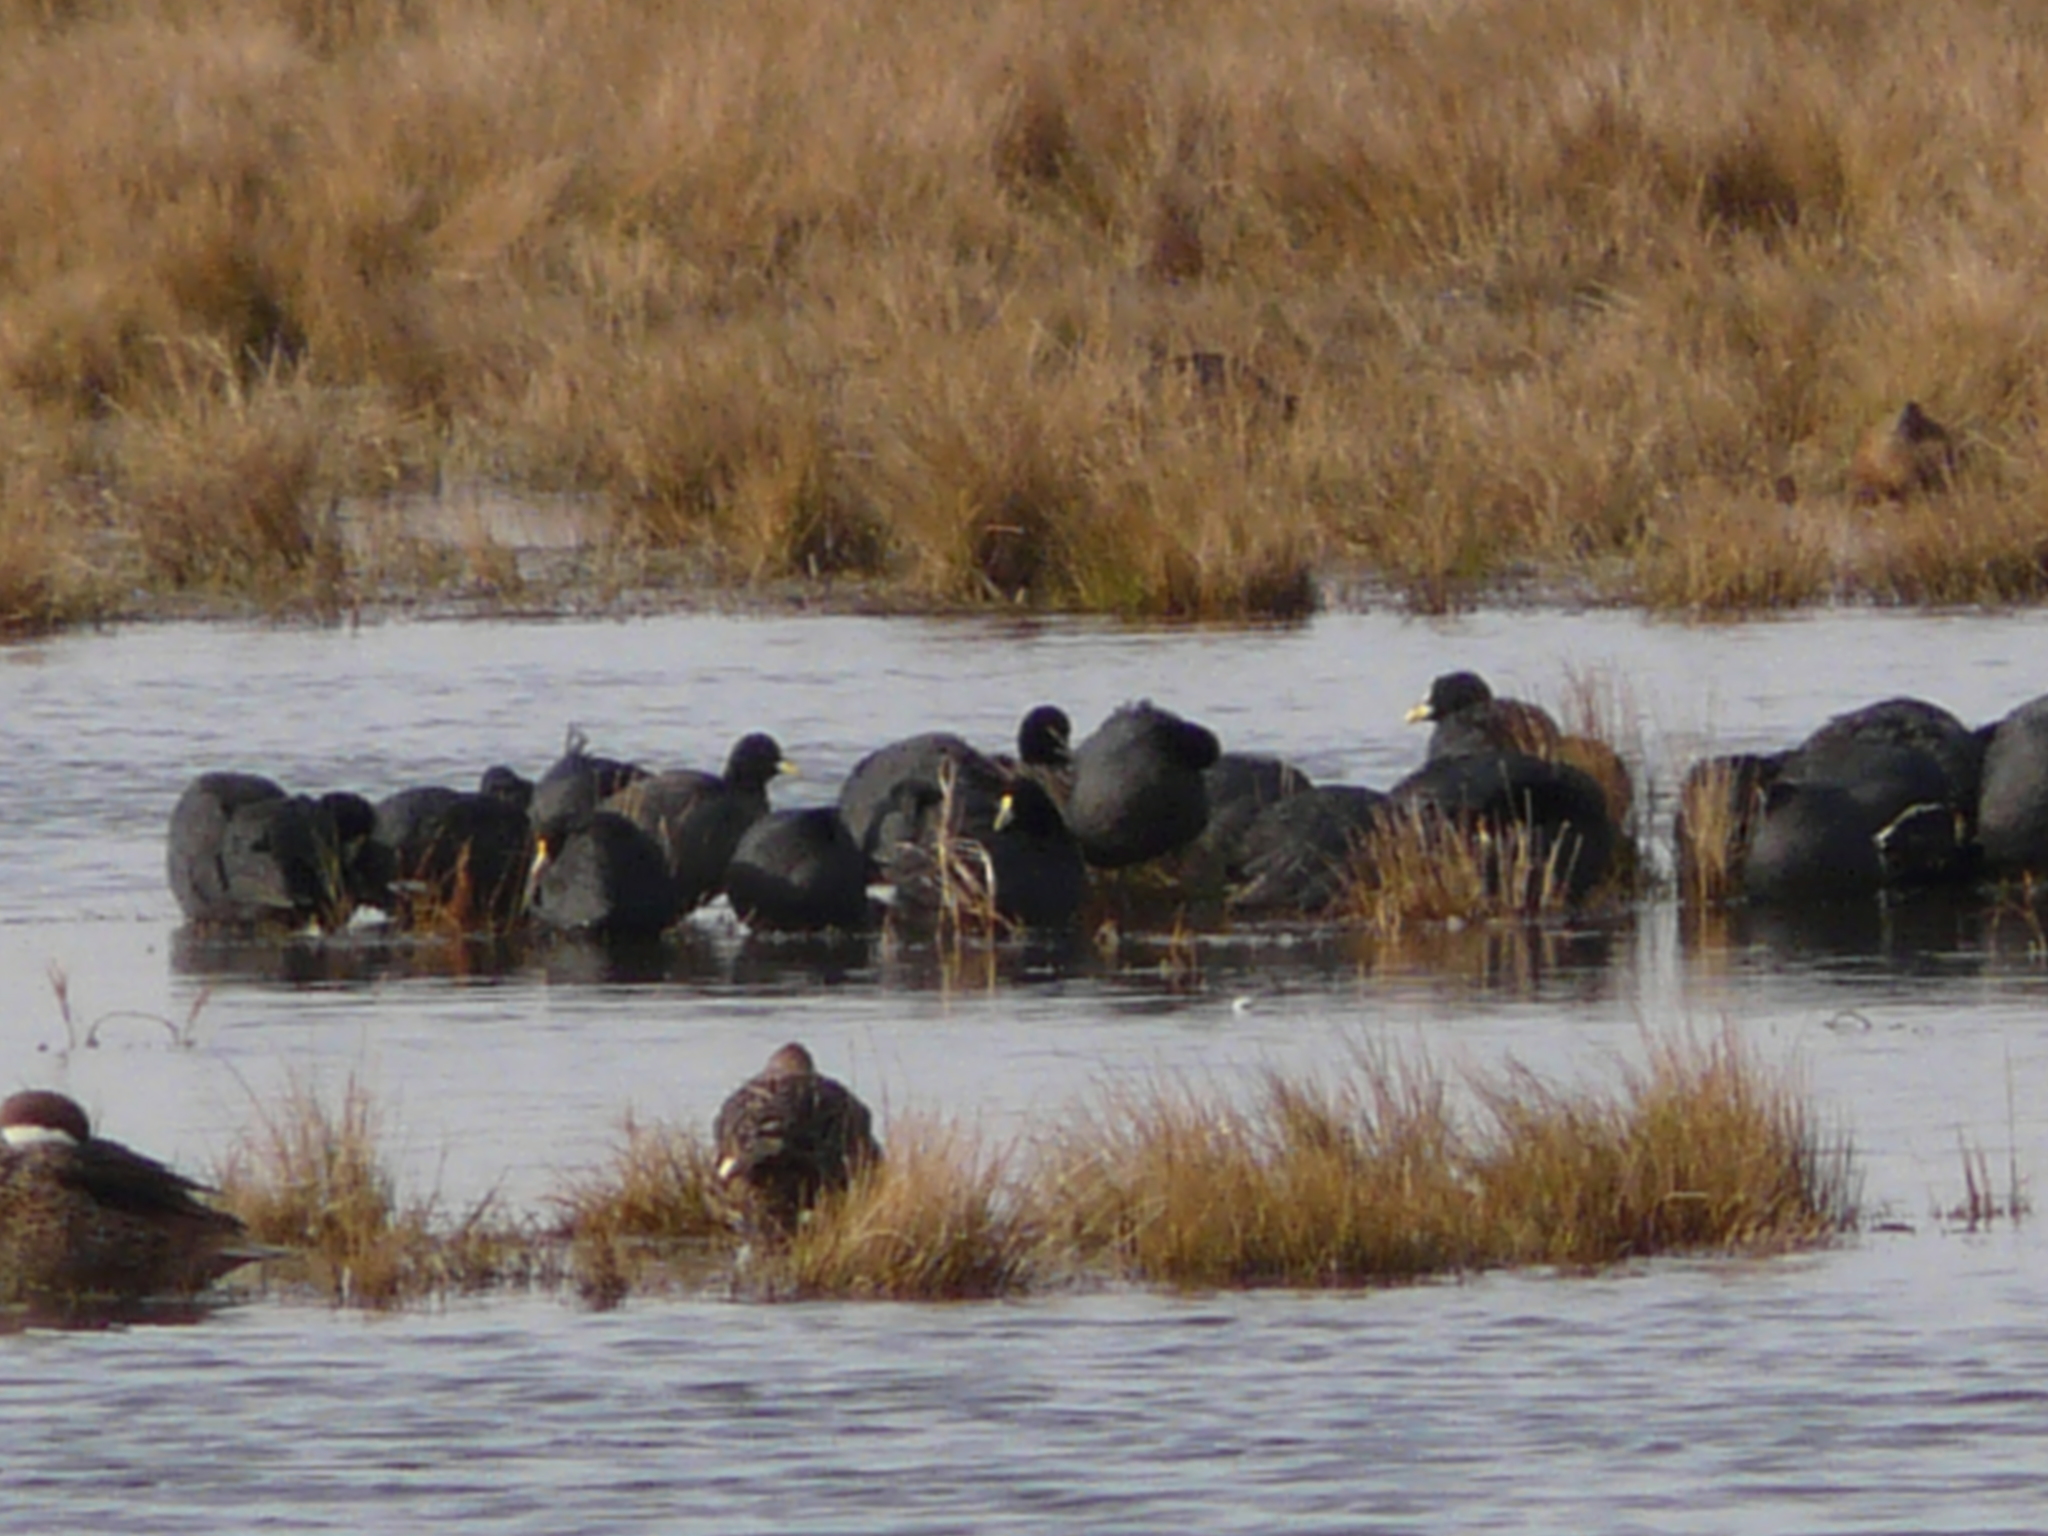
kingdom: Animalia
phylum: Chordata
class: Aves
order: Gruiformes
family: Rallidae
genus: Fulica
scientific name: Fulica leucoptera
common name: White-winged coot
